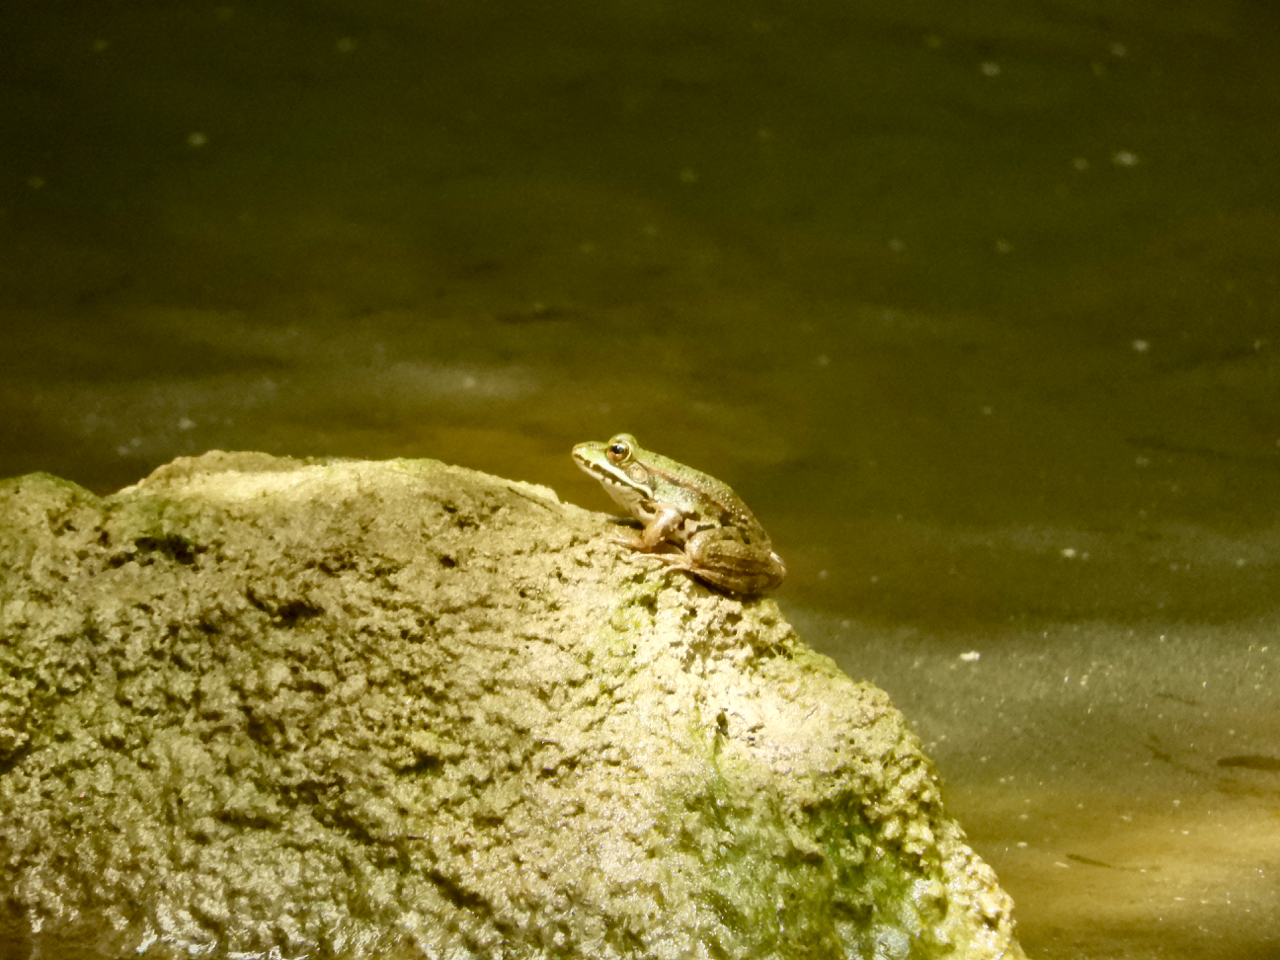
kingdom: Animalia
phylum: Chordata
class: Amphibia
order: Anura
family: Ranidae
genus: Pelophylax
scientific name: Pelophylax
